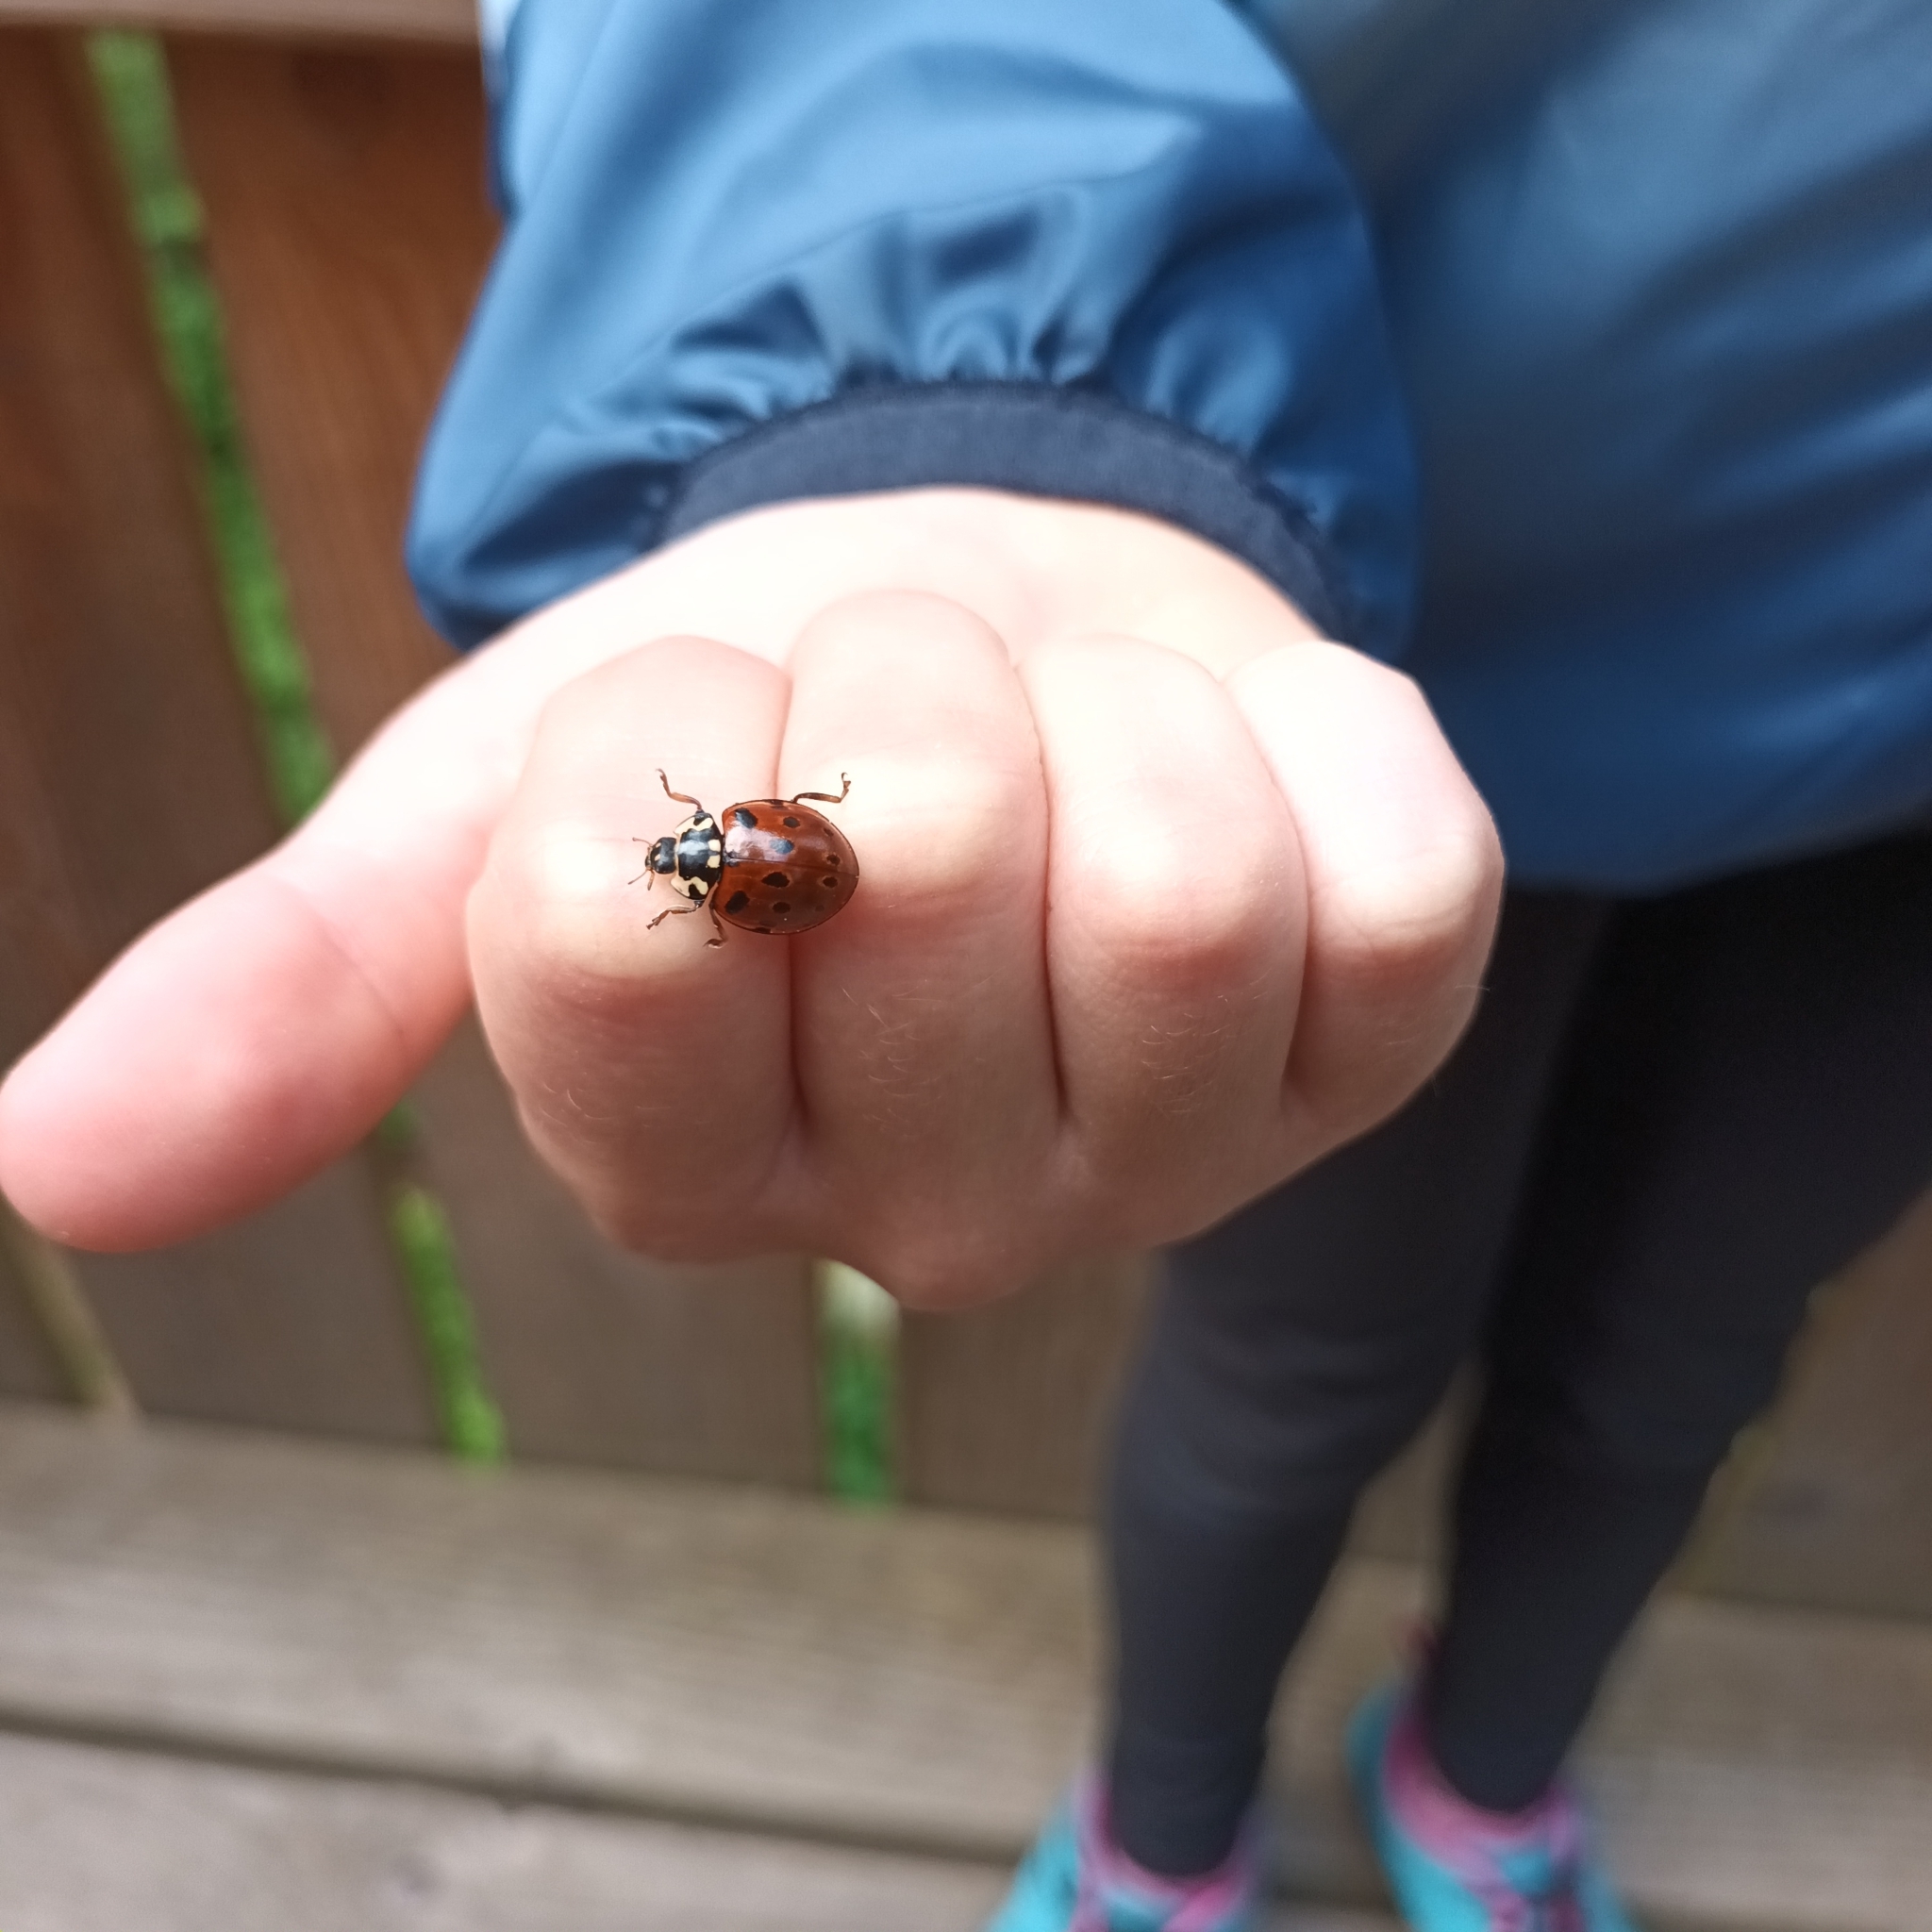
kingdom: Animalia
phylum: Arthropoda
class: Insecta
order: Coleoptera
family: Coccinellidae
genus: Anatis
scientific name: Anatis ocellata
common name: Eyed ladybird
